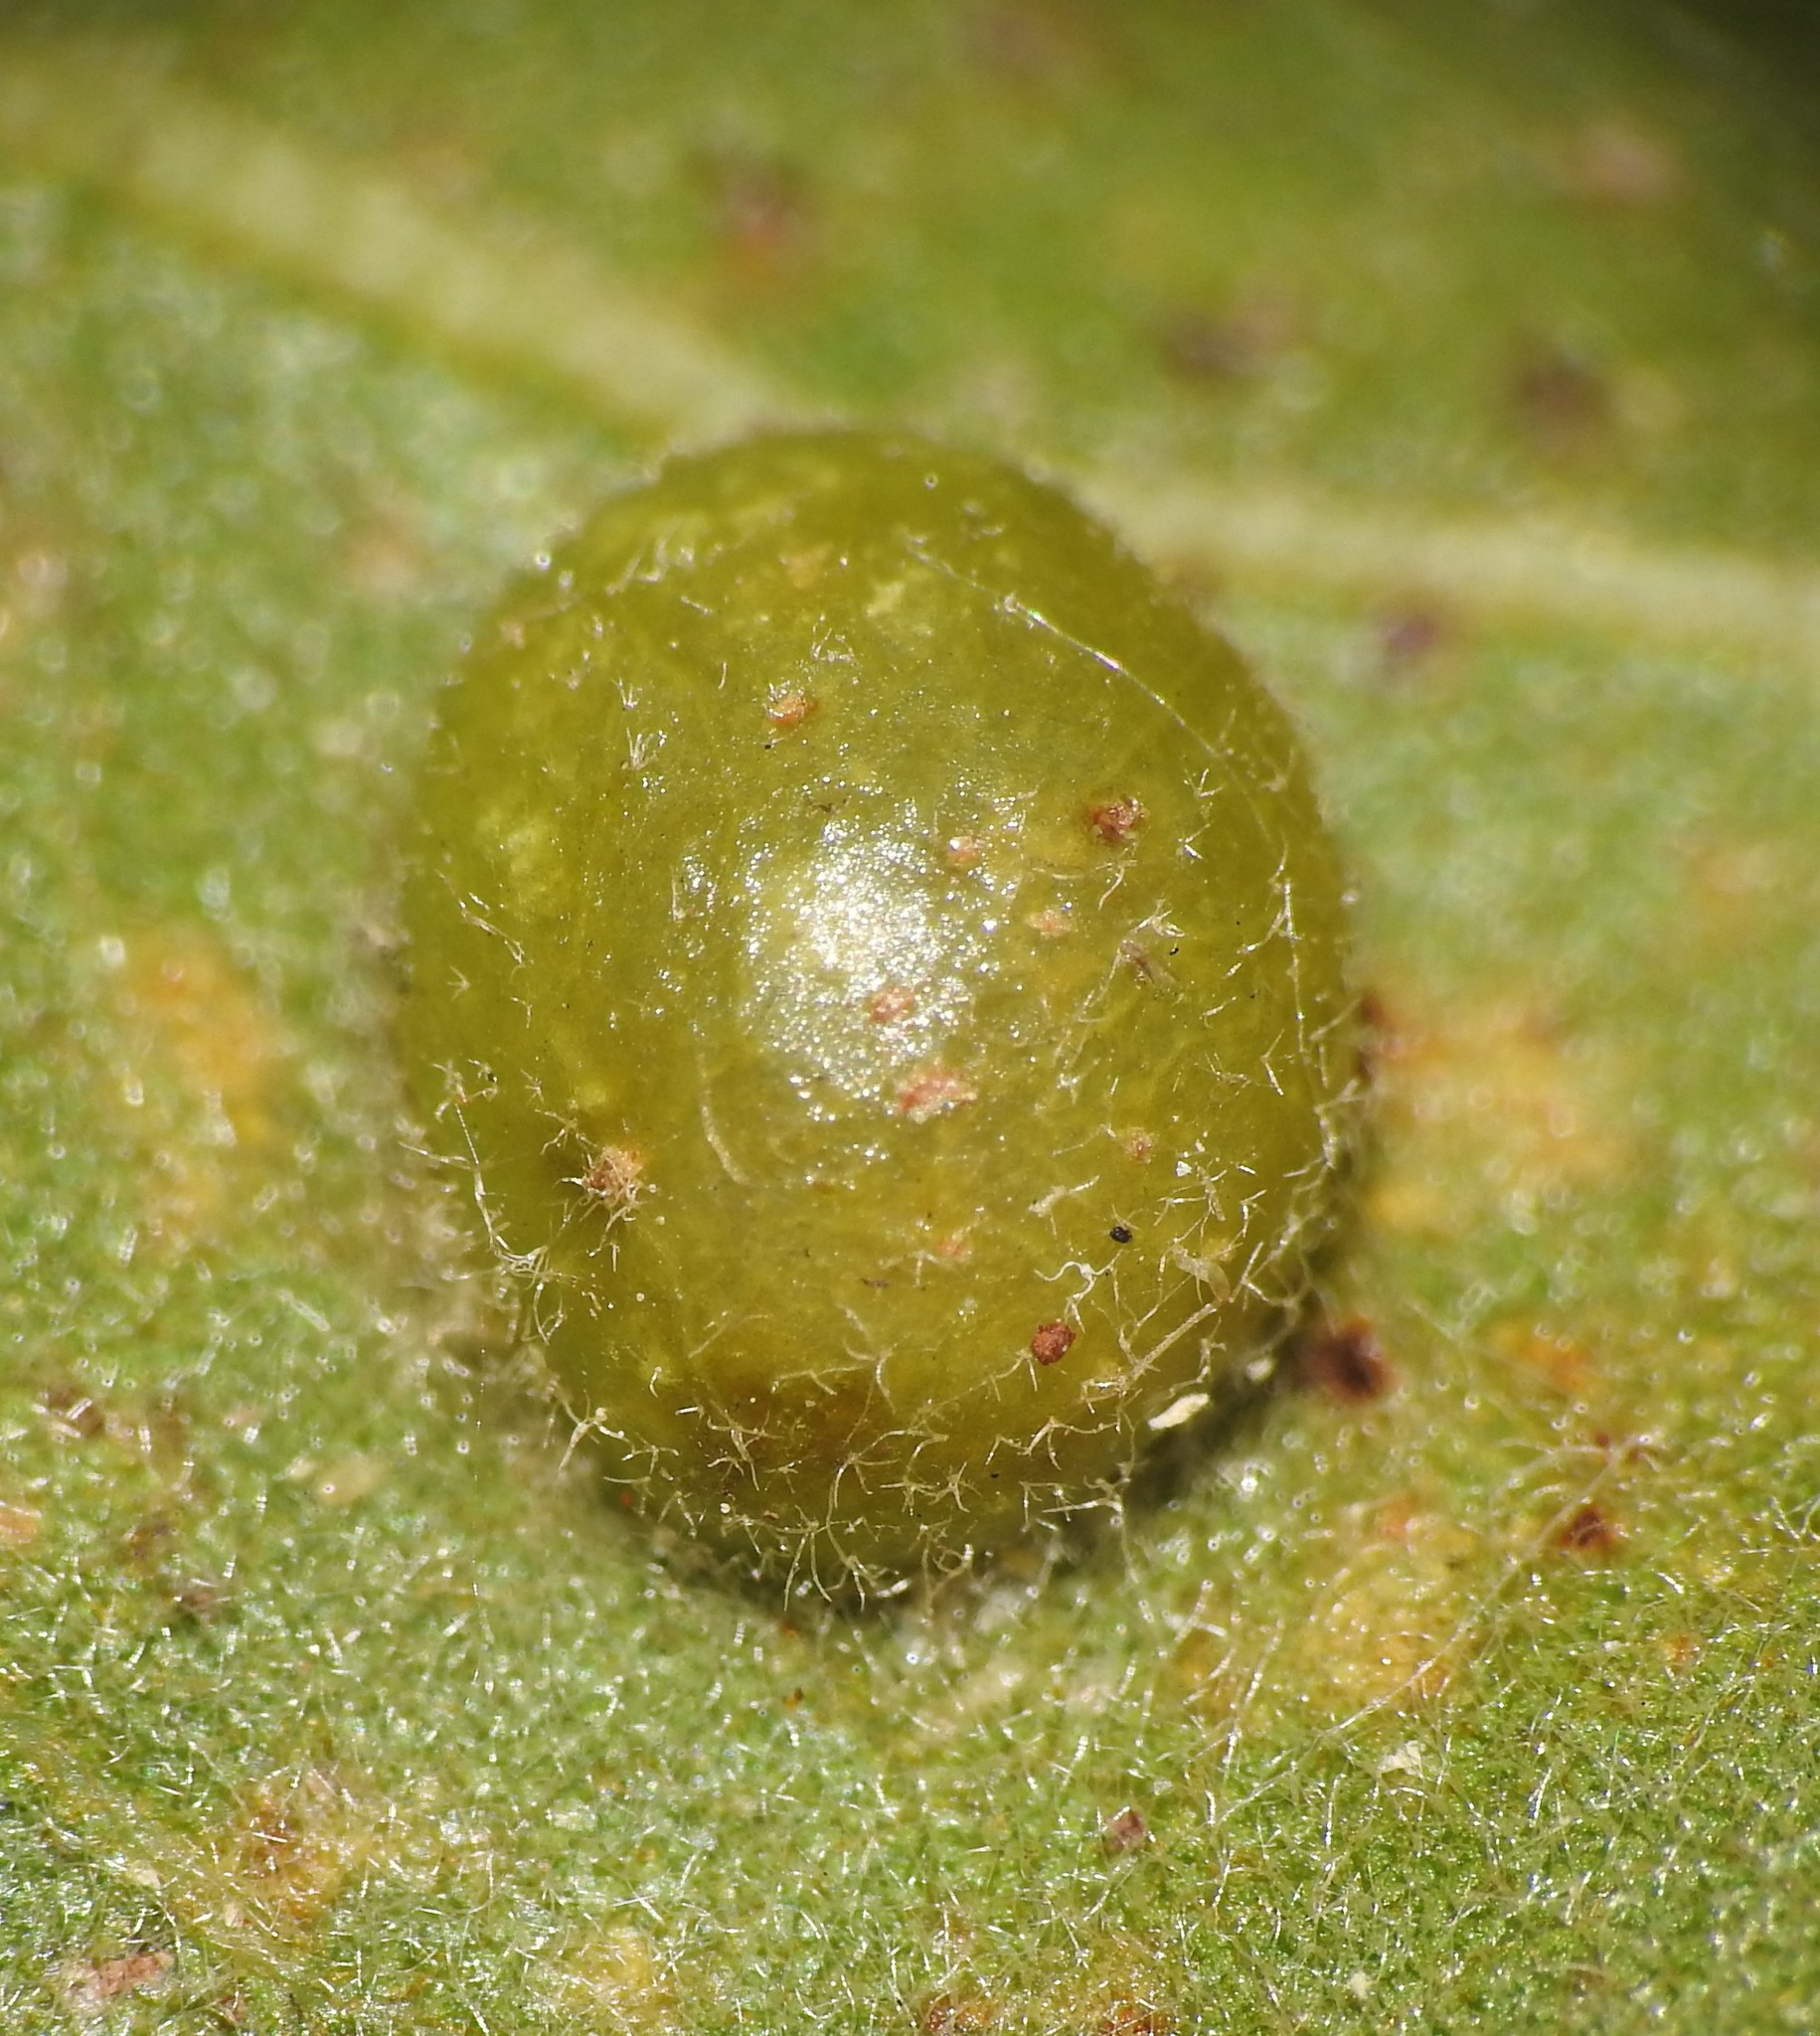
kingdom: Animalia
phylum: Arthropoda
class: Insecta
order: Hymenoptera
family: Cynipidae
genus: Dryocosmus
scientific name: Dryocosmus
